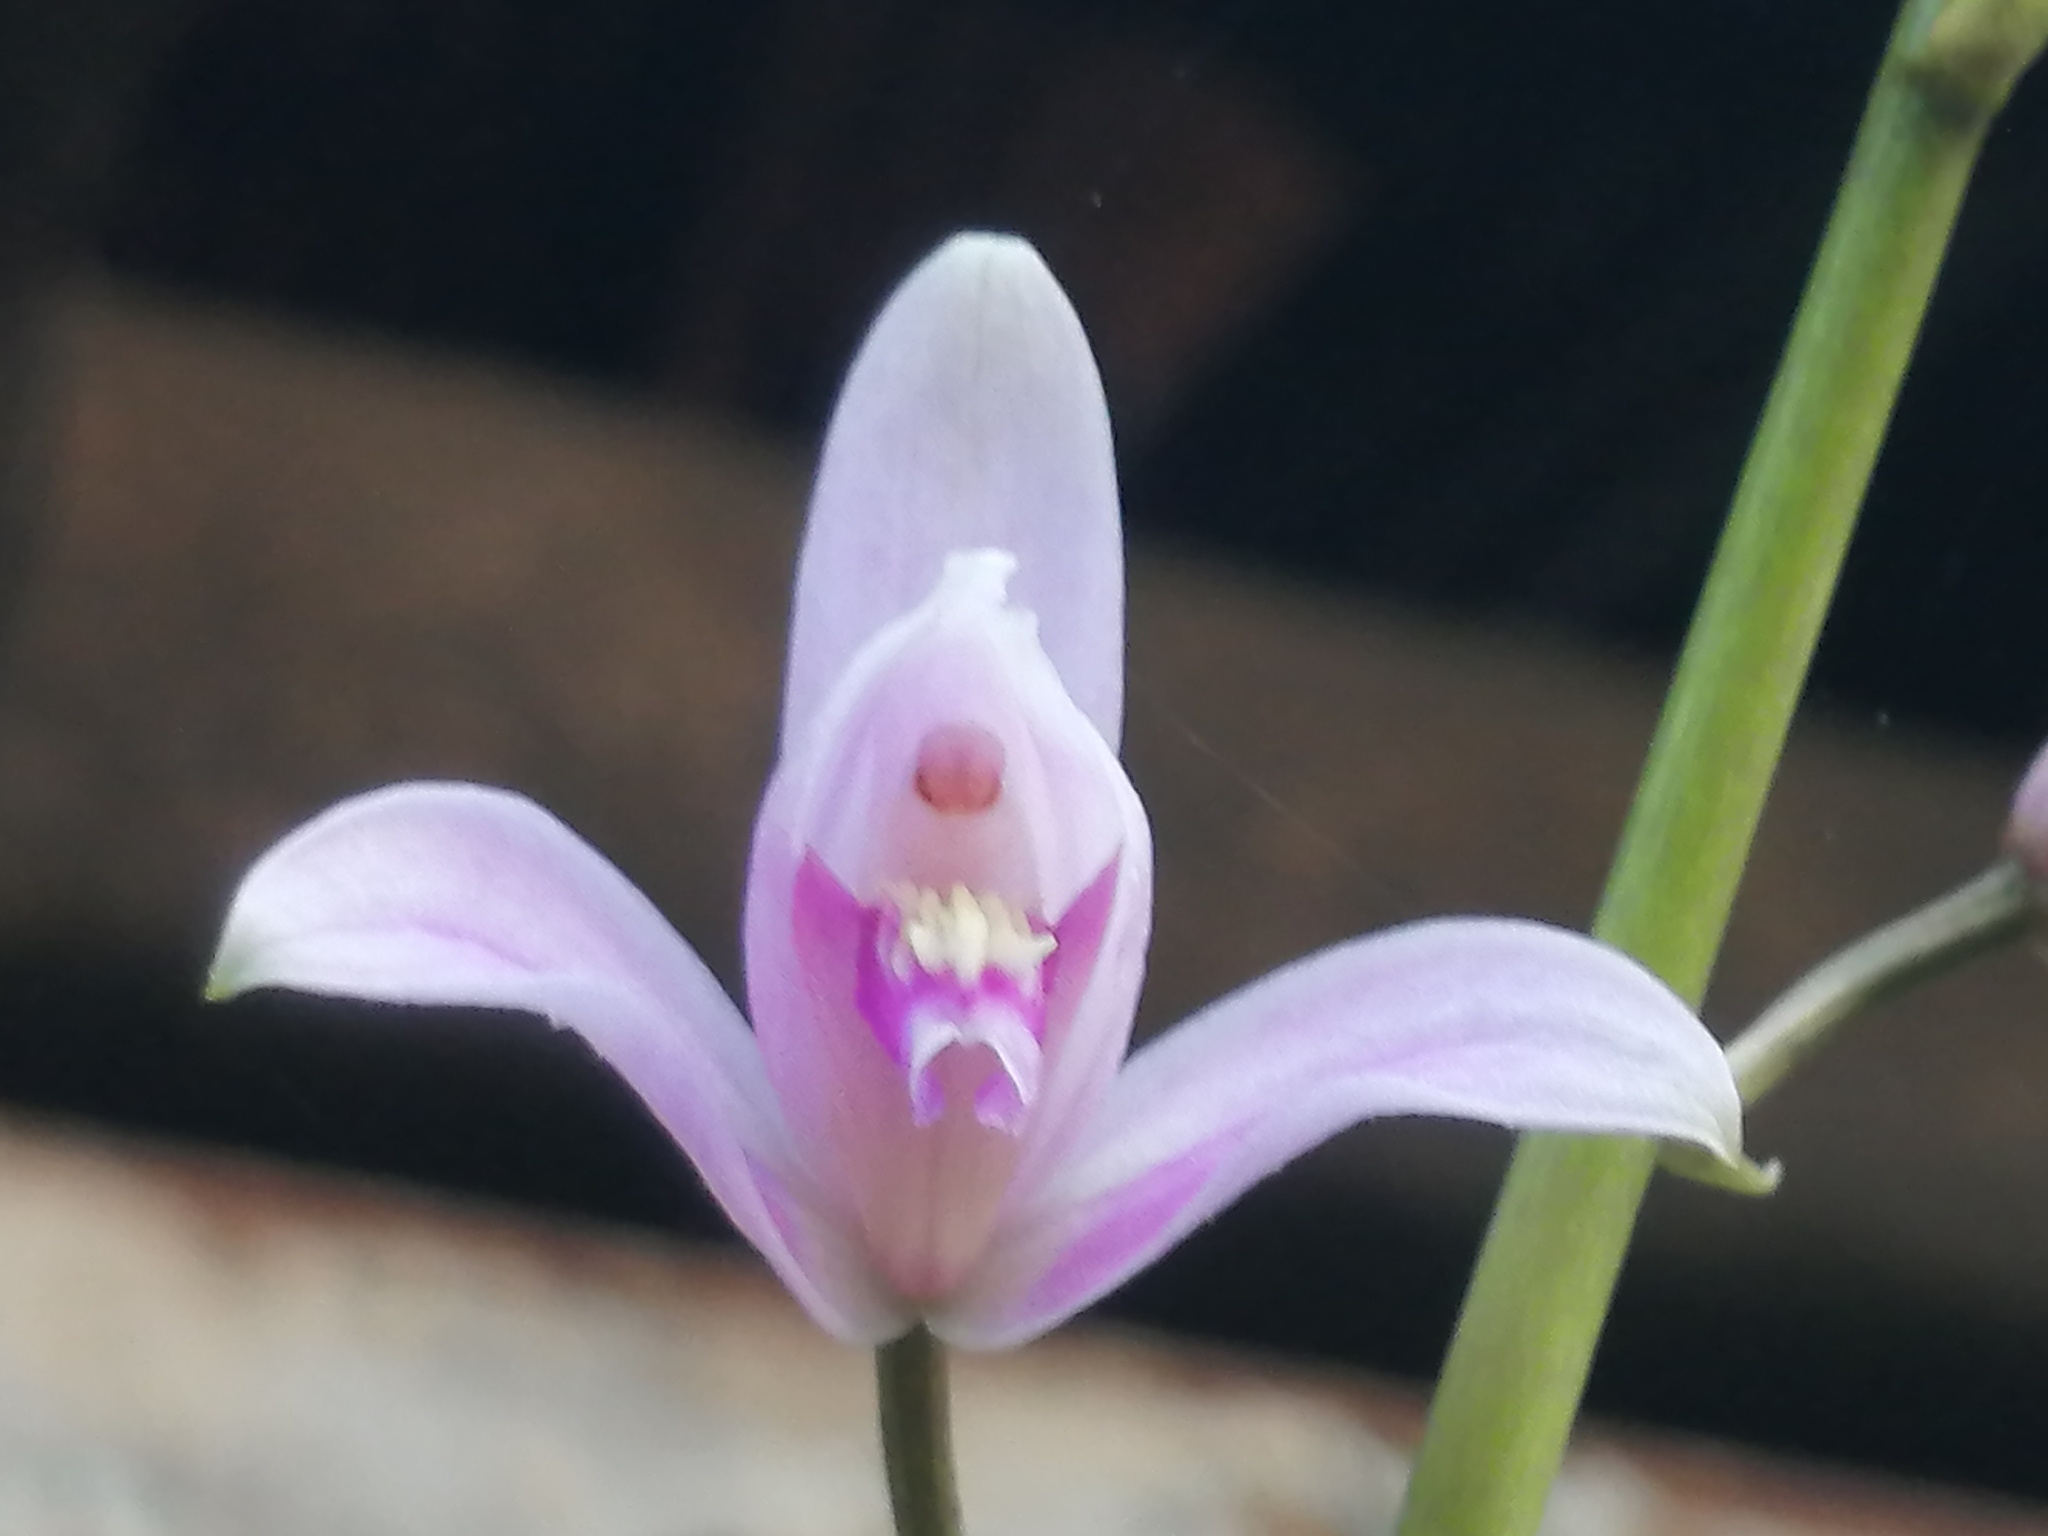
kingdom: Plantae
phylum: Tracheophyta
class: Liliopsida
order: Asparagales
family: Orchidaceae
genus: Bletia
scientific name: Bletia purpurea
